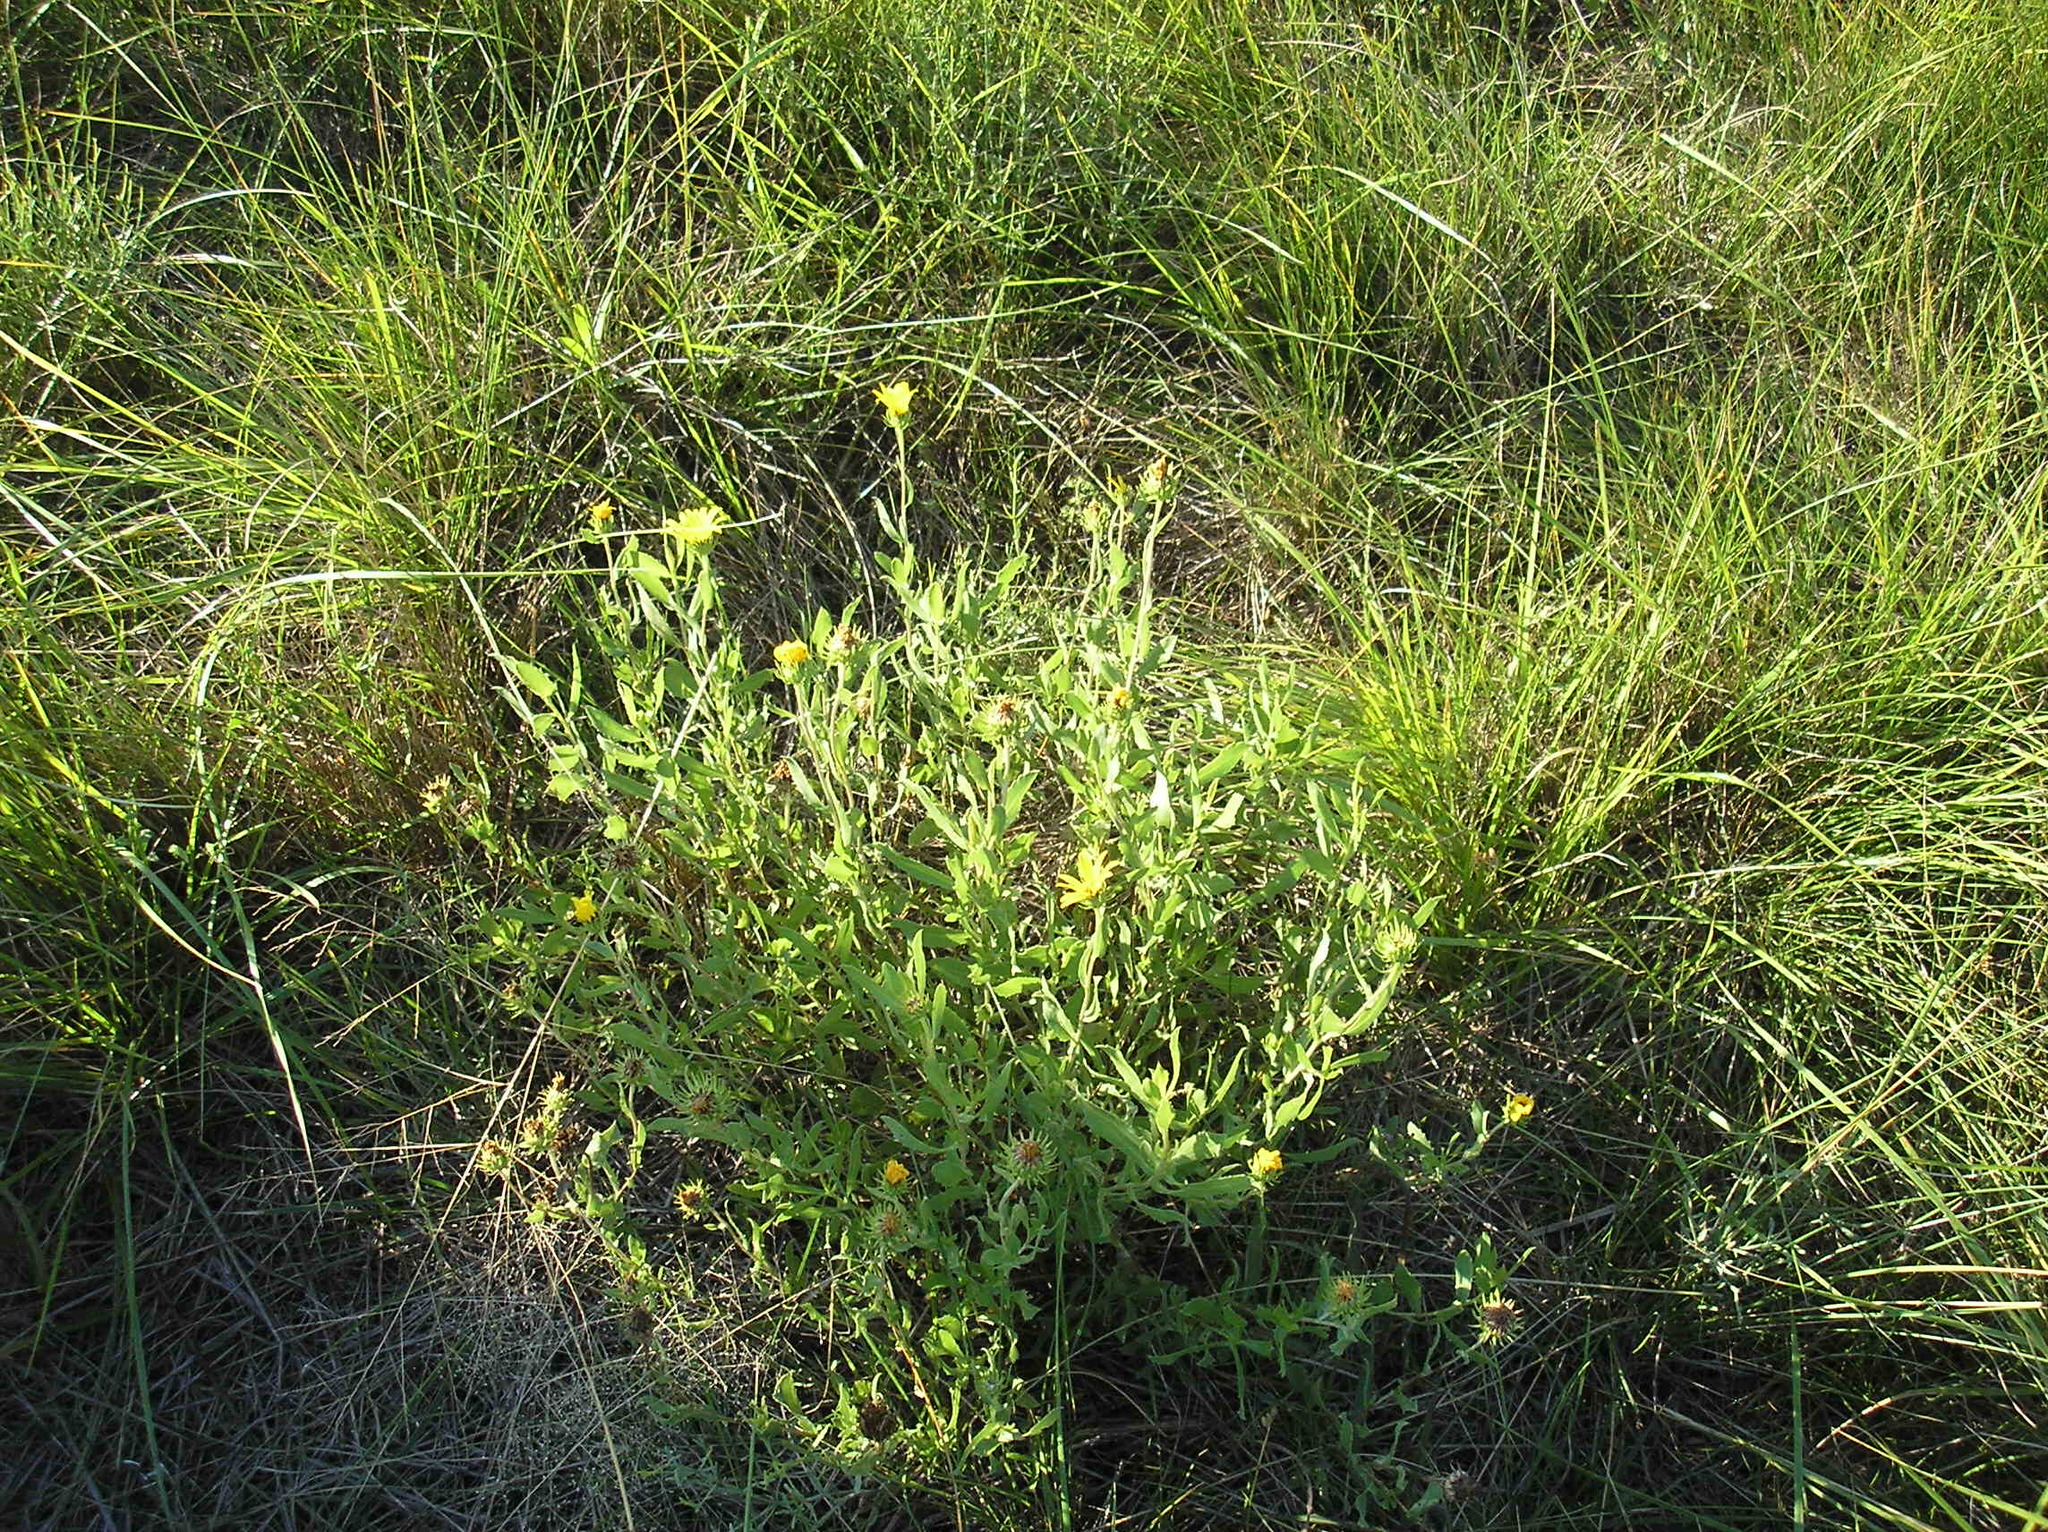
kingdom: Plantae
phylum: Tracheophyta
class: Magnoliopsida
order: Asterales
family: Asteraceae
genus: Grindelia
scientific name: Grindelia pulchella
